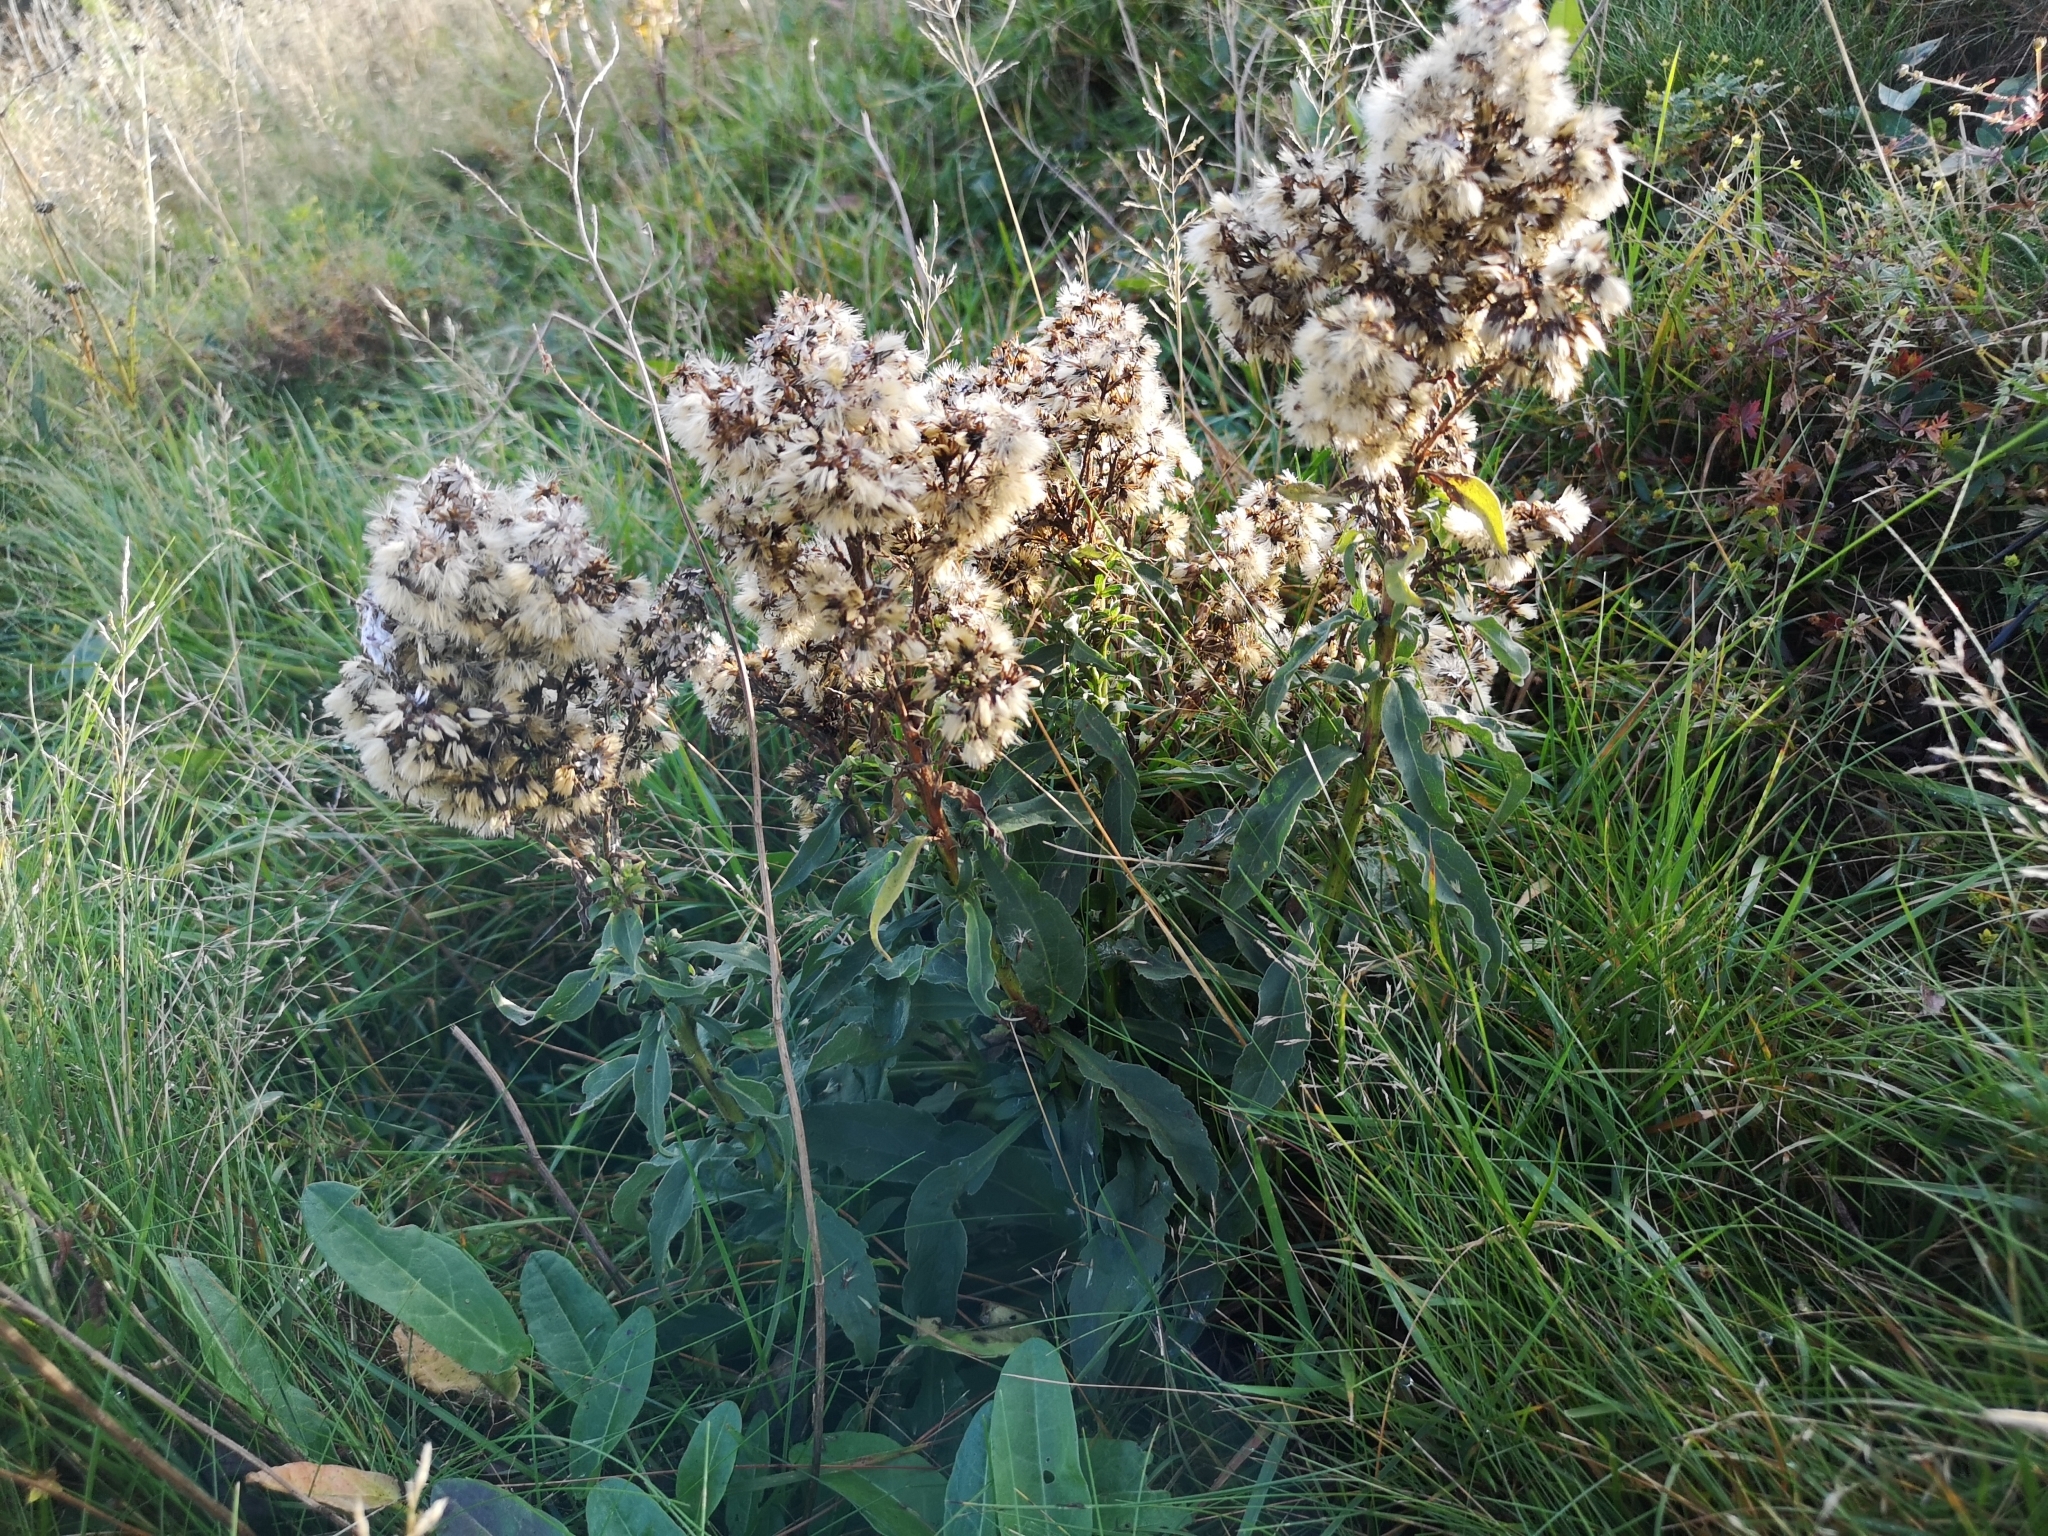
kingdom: Plantae
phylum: Tracheophyta
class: Magnoliopsida
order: Asterales
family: Asteraceae
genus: Solidago
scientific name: Solidago virgaurea
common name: Goldenrod
